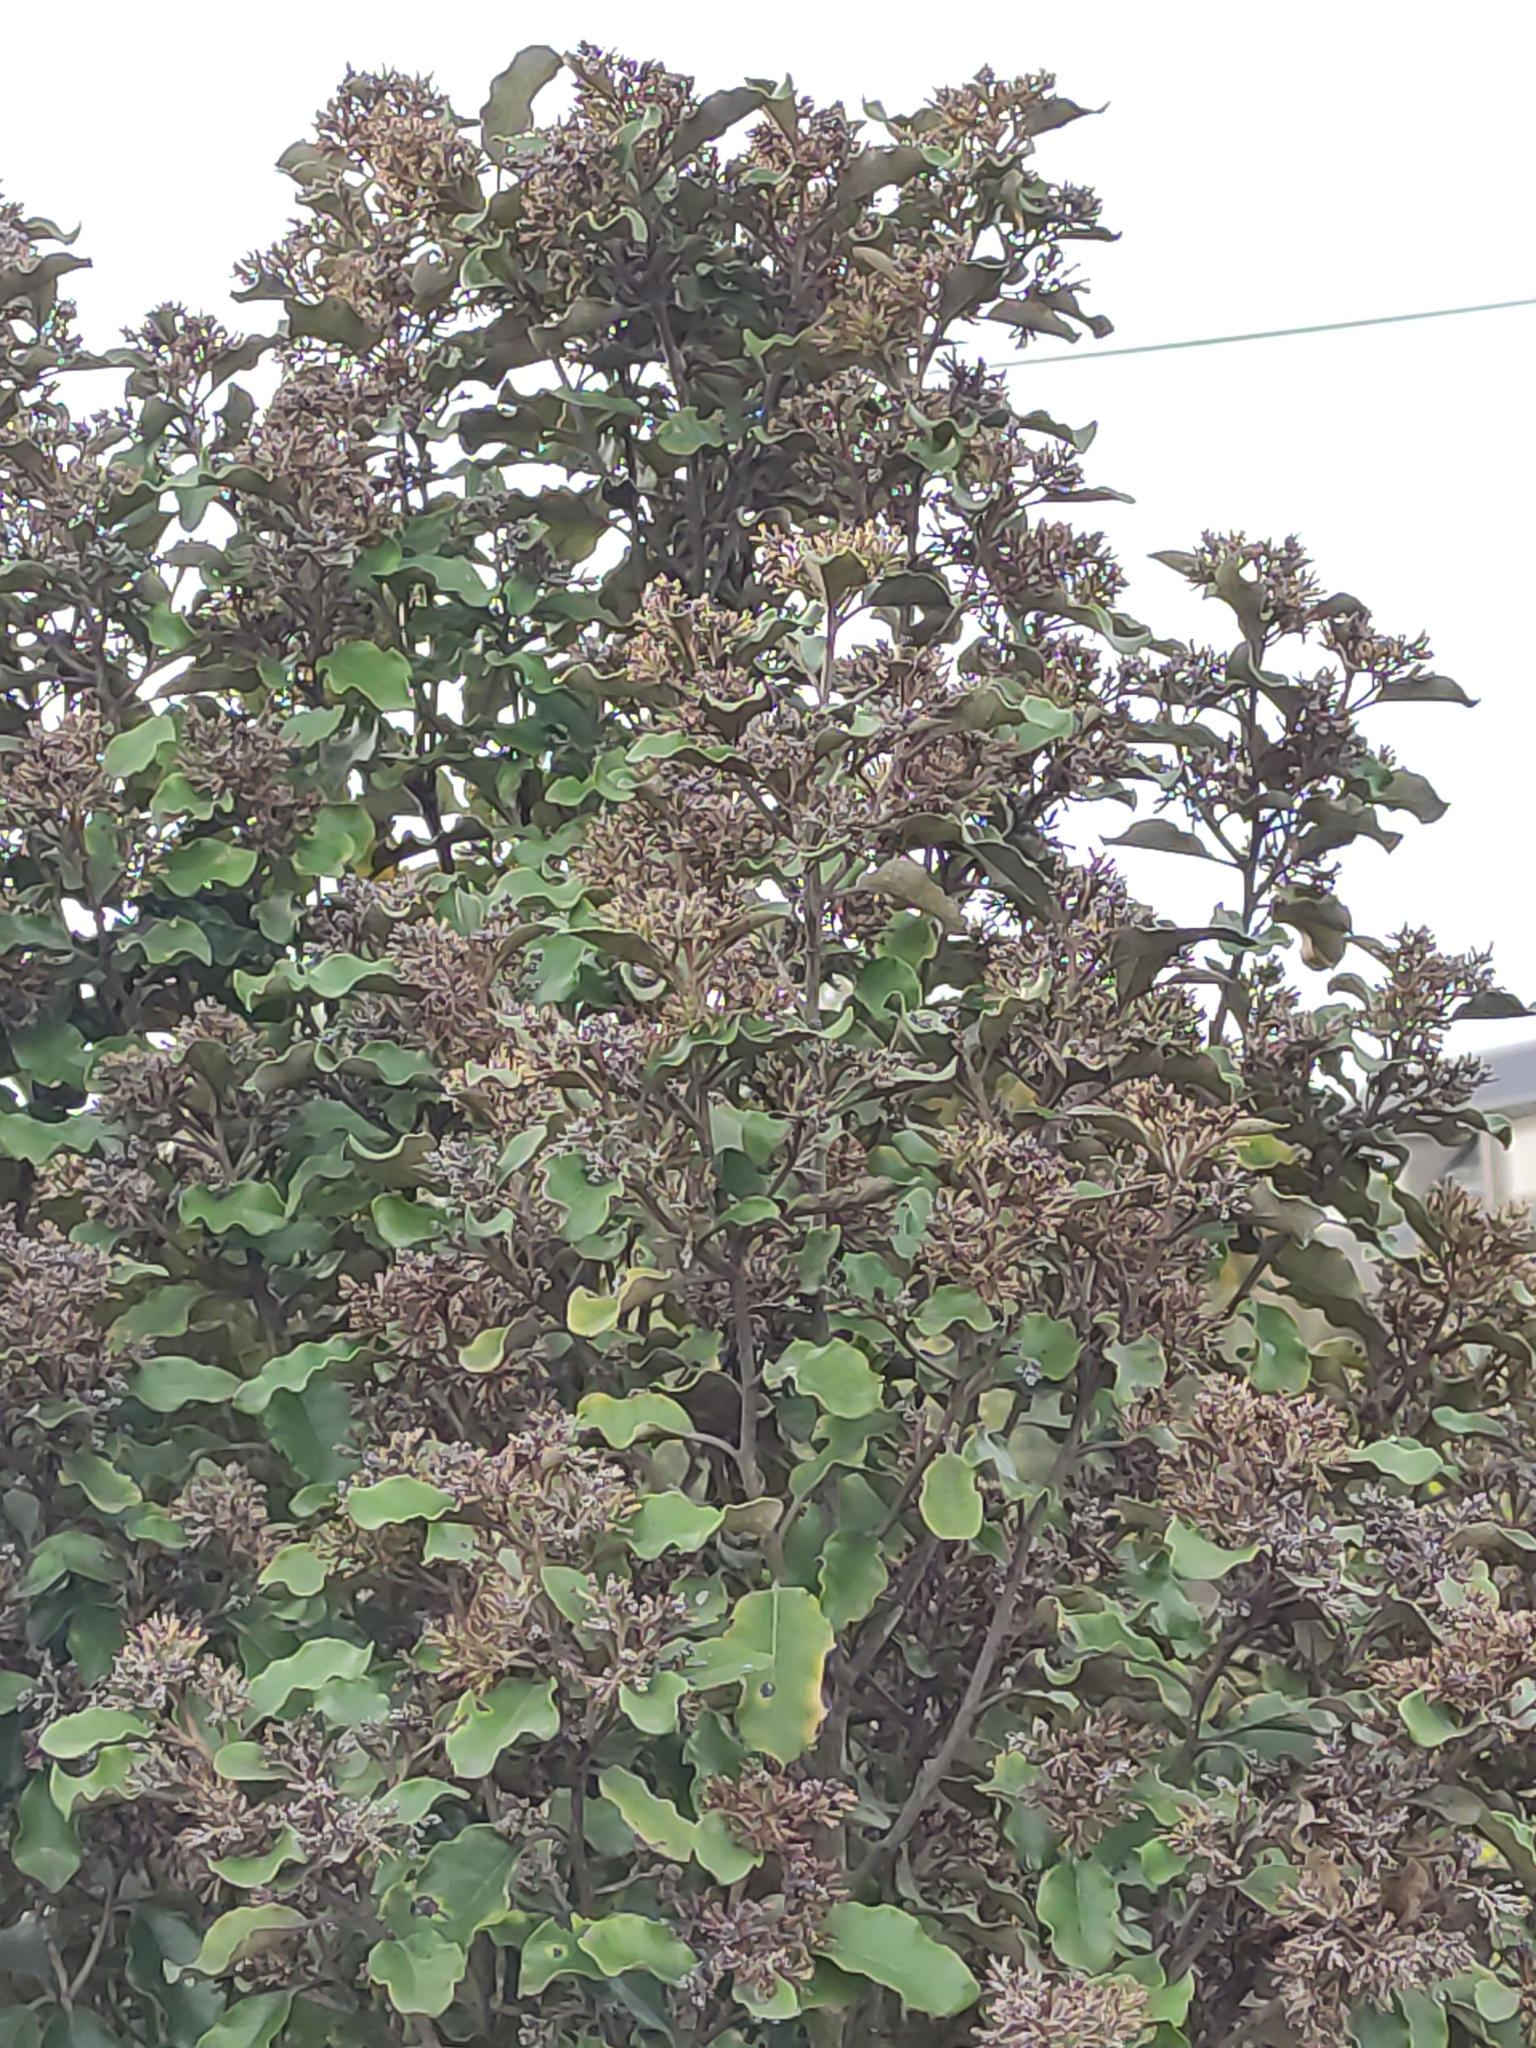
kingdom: Plantae
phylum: Tracheophyta
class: Magnoliopsida
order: Asterales
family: Asteraceae
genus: Olearia
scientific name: Olearia paniculata
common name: Akiraho
